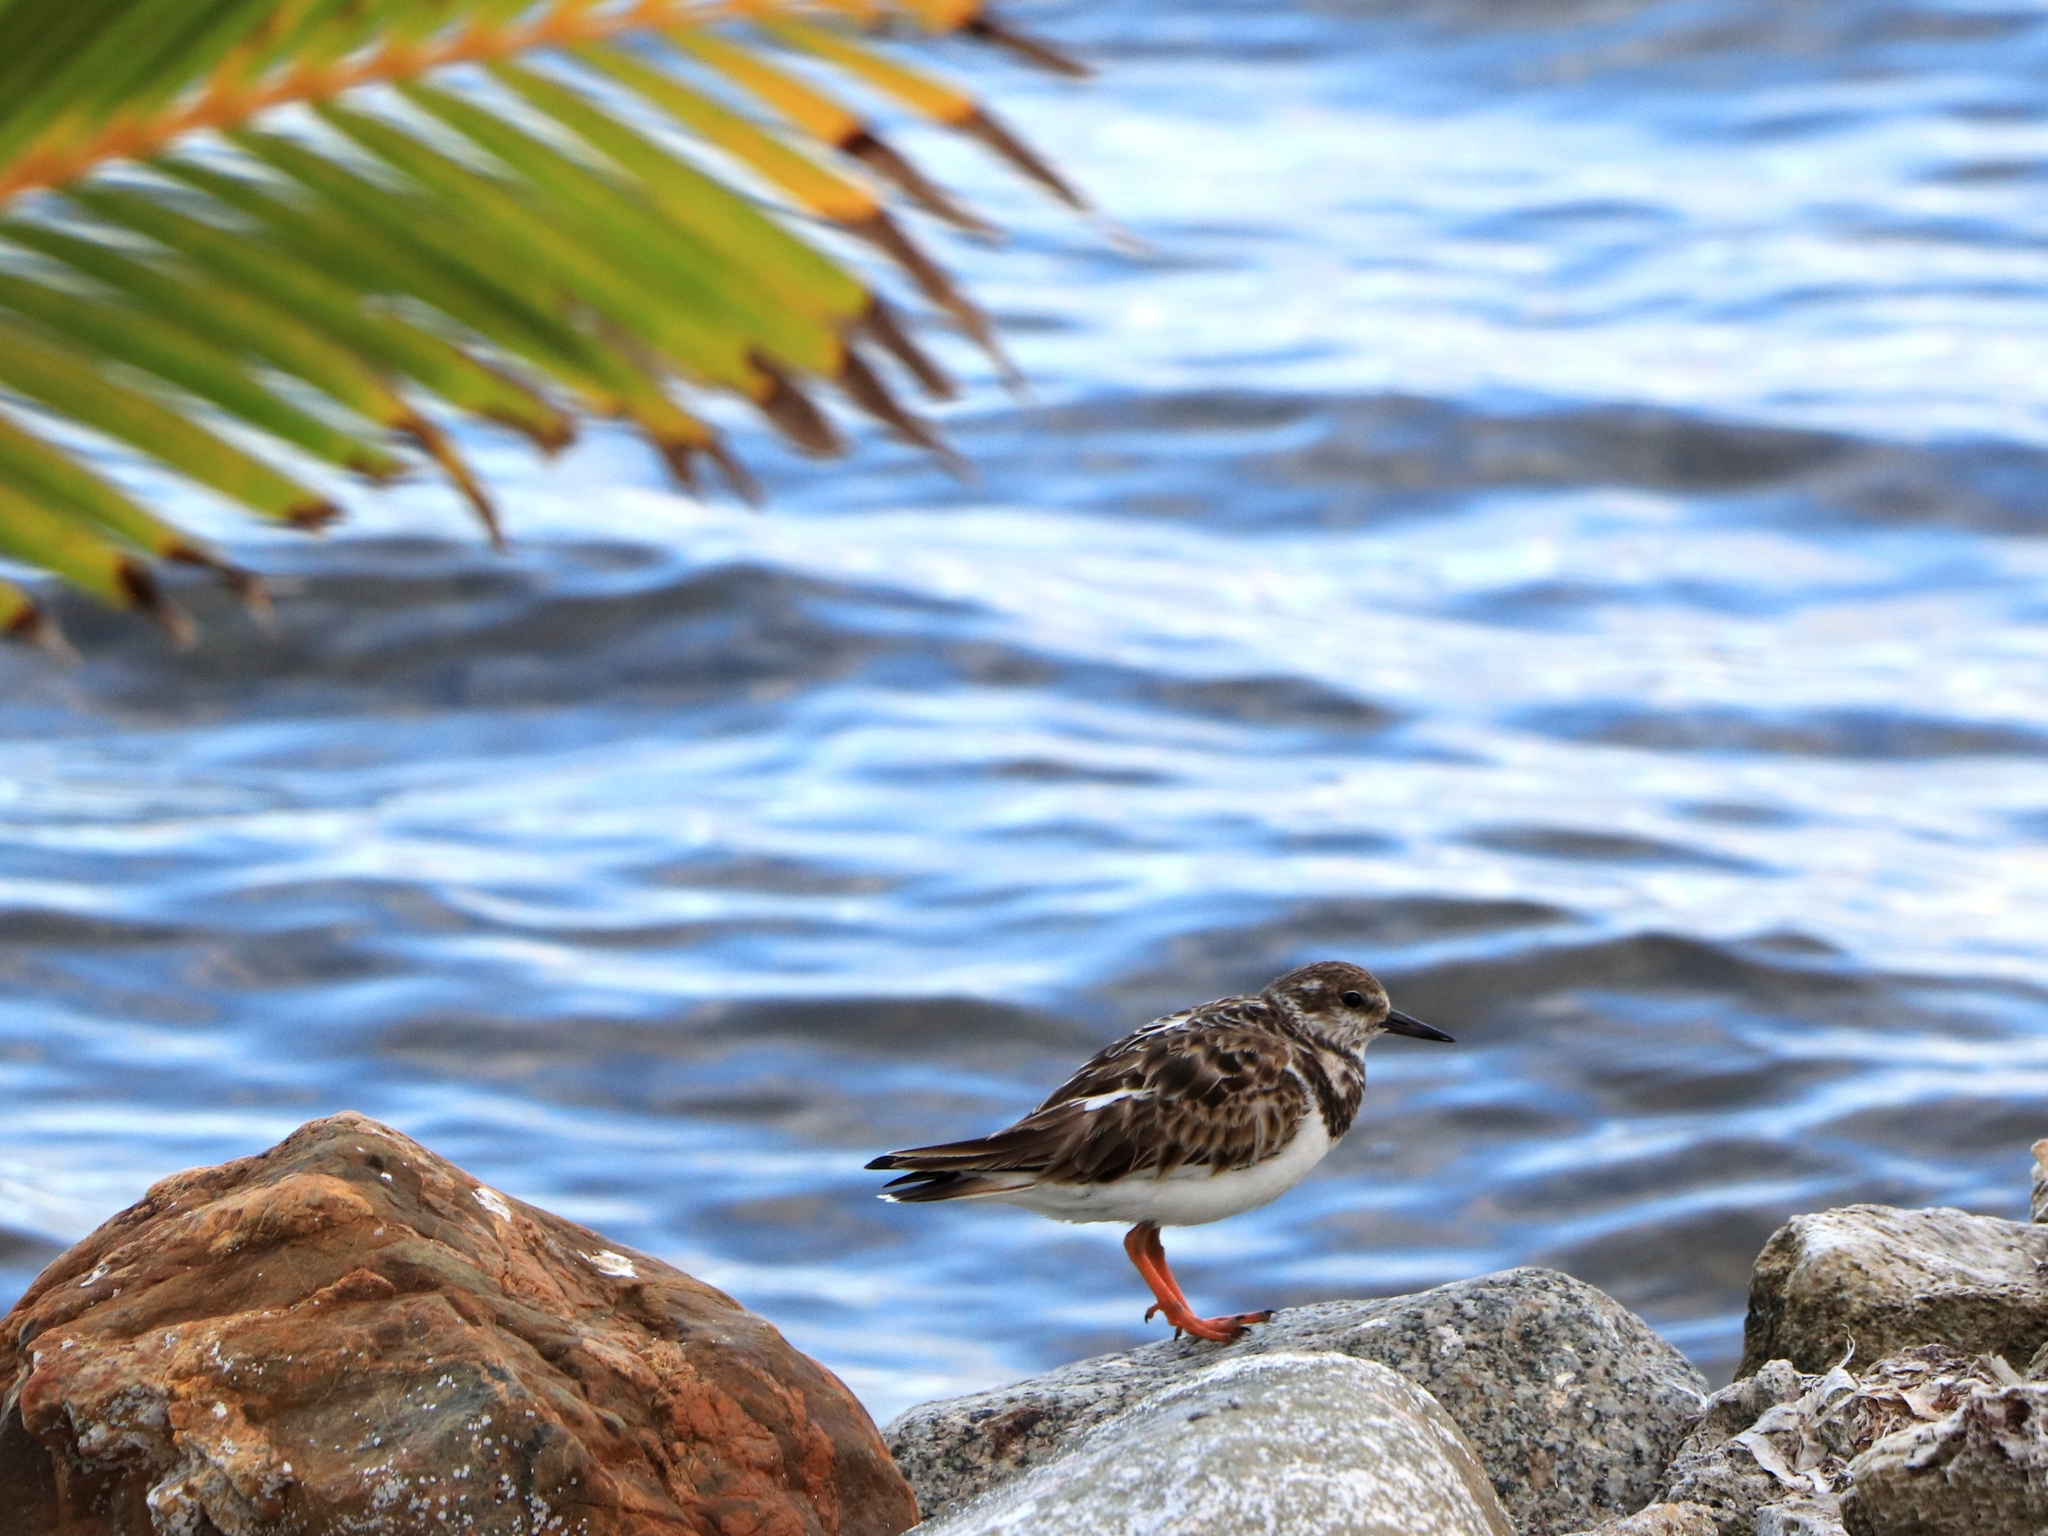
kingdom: Animalia
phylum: Chordata
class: Aves
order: Charadriiformes
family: Scolopacidae
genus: Arenaria
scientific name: Arenaria interpres
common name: Ruddy turnstone
